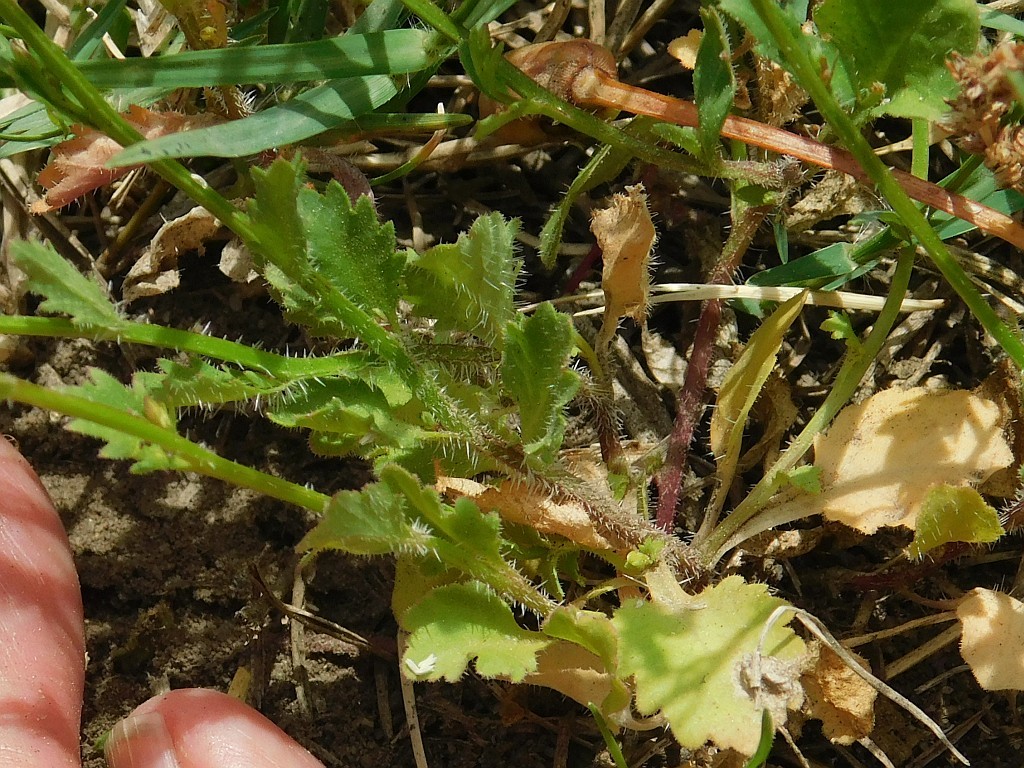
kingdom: Plantae
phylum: Tracheophyta
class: Magnoliopsida
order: Asterales
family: Campanulaceae
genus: Lobelia
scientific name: Lobelia erinus
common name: Edging lobelia
